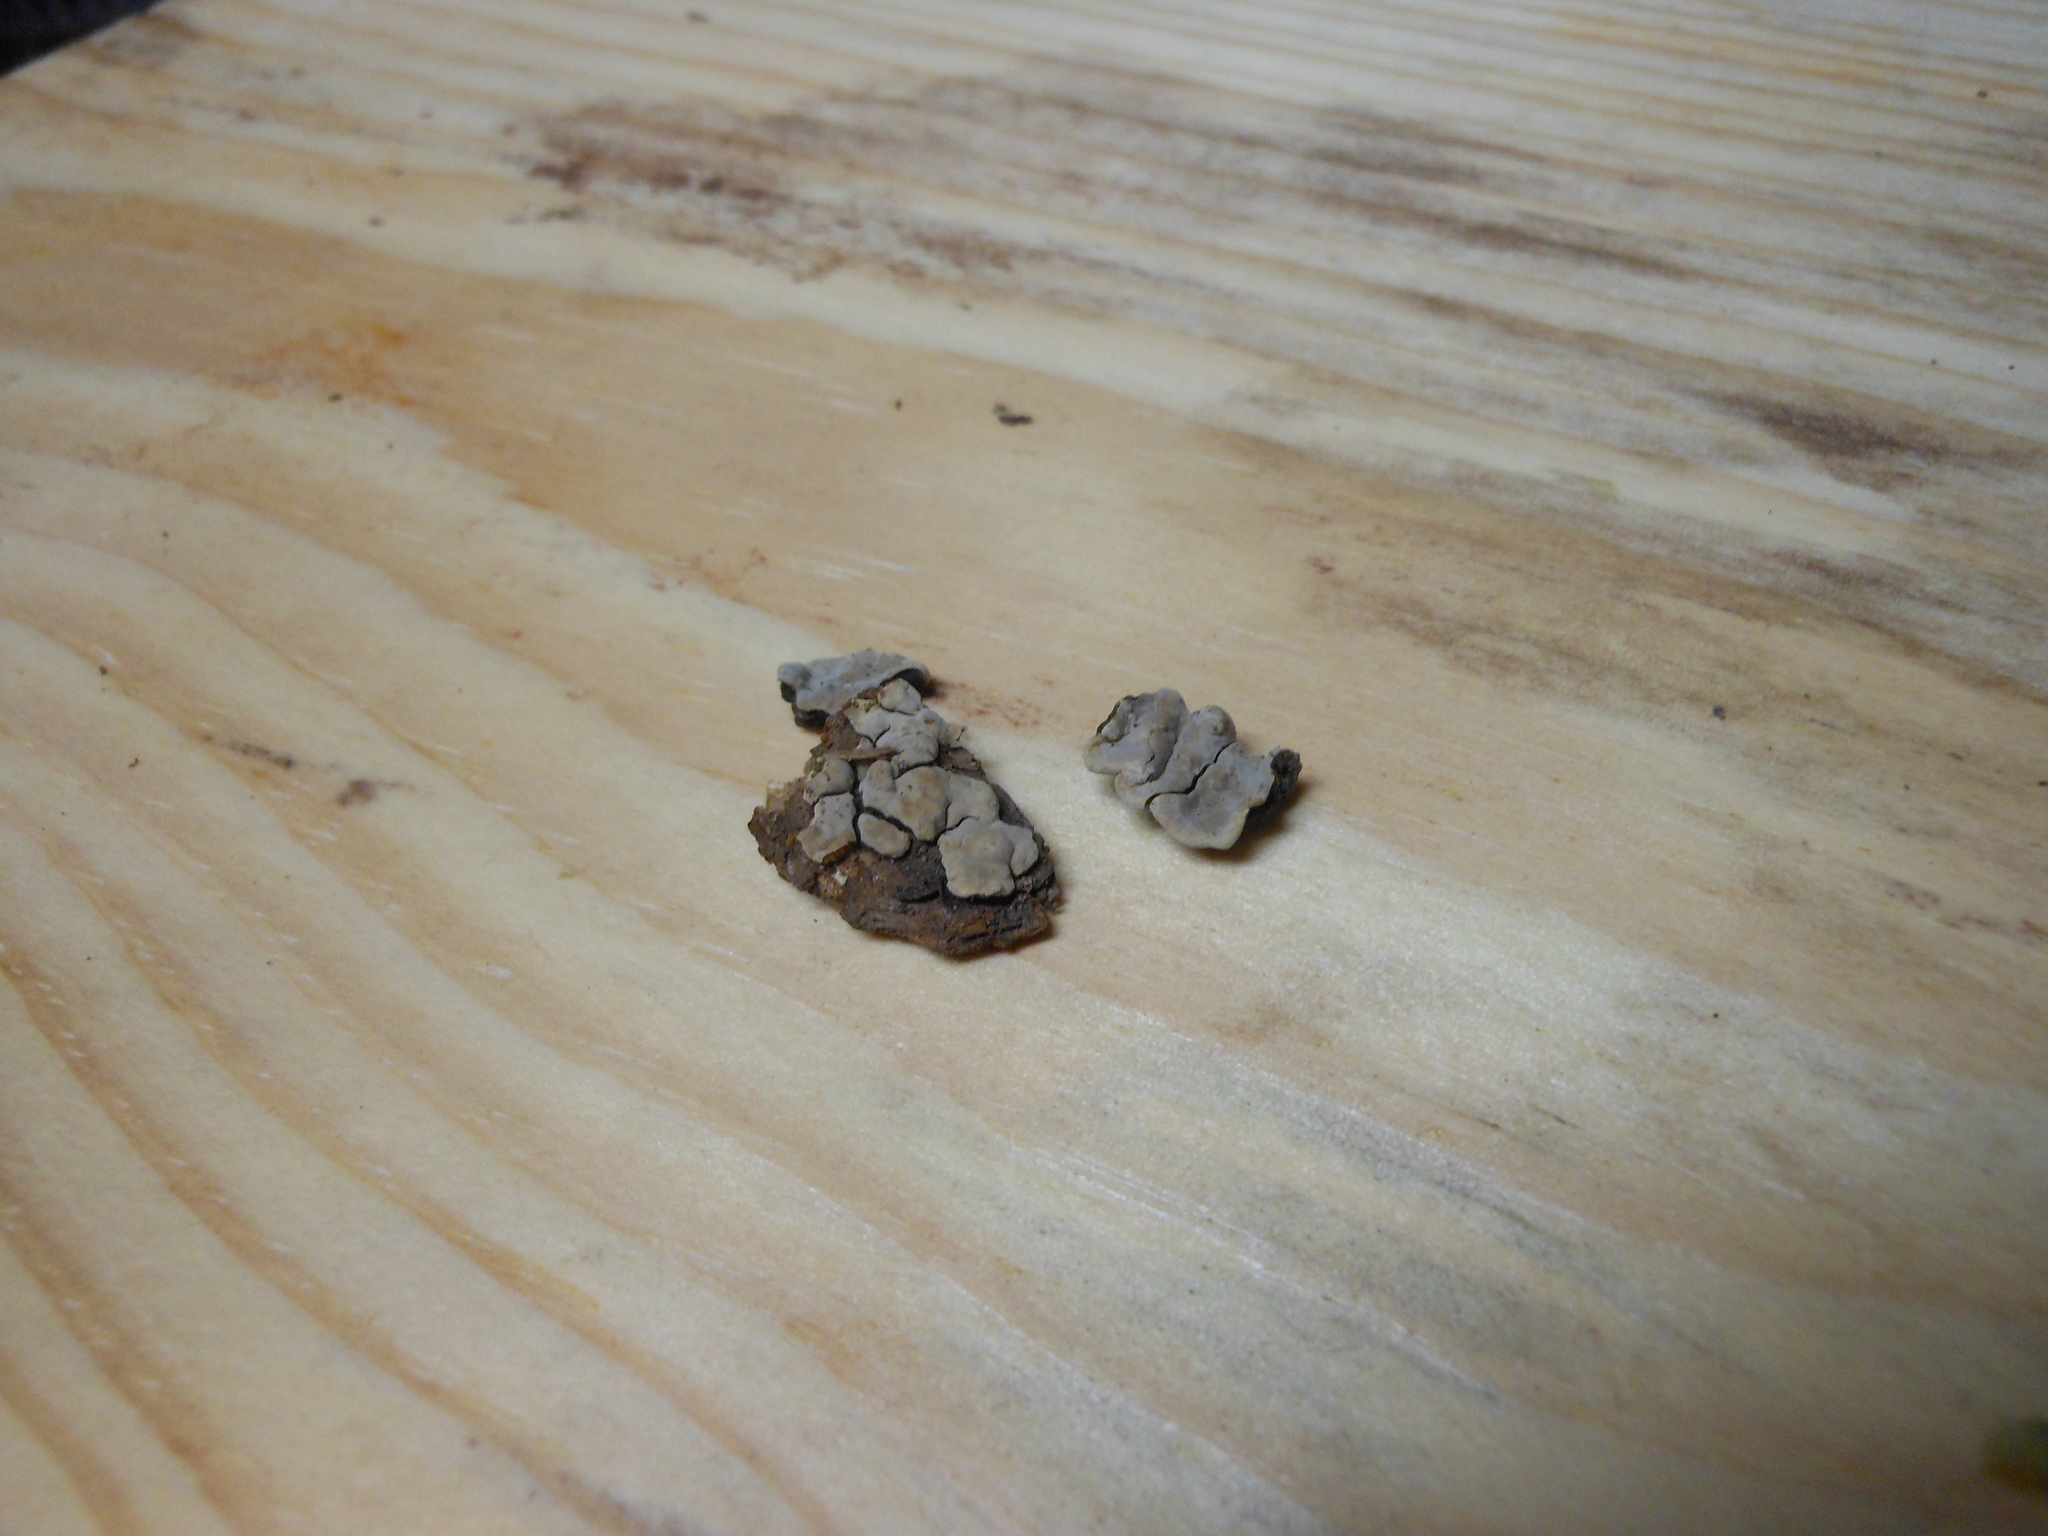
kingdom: Fungi
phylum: Basidiomycota
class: Agaricomycetes
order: Russulales
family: Stereaceae
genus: Xylobolus
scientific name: Xylobolus frustulatus
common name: Ceramic parchment
